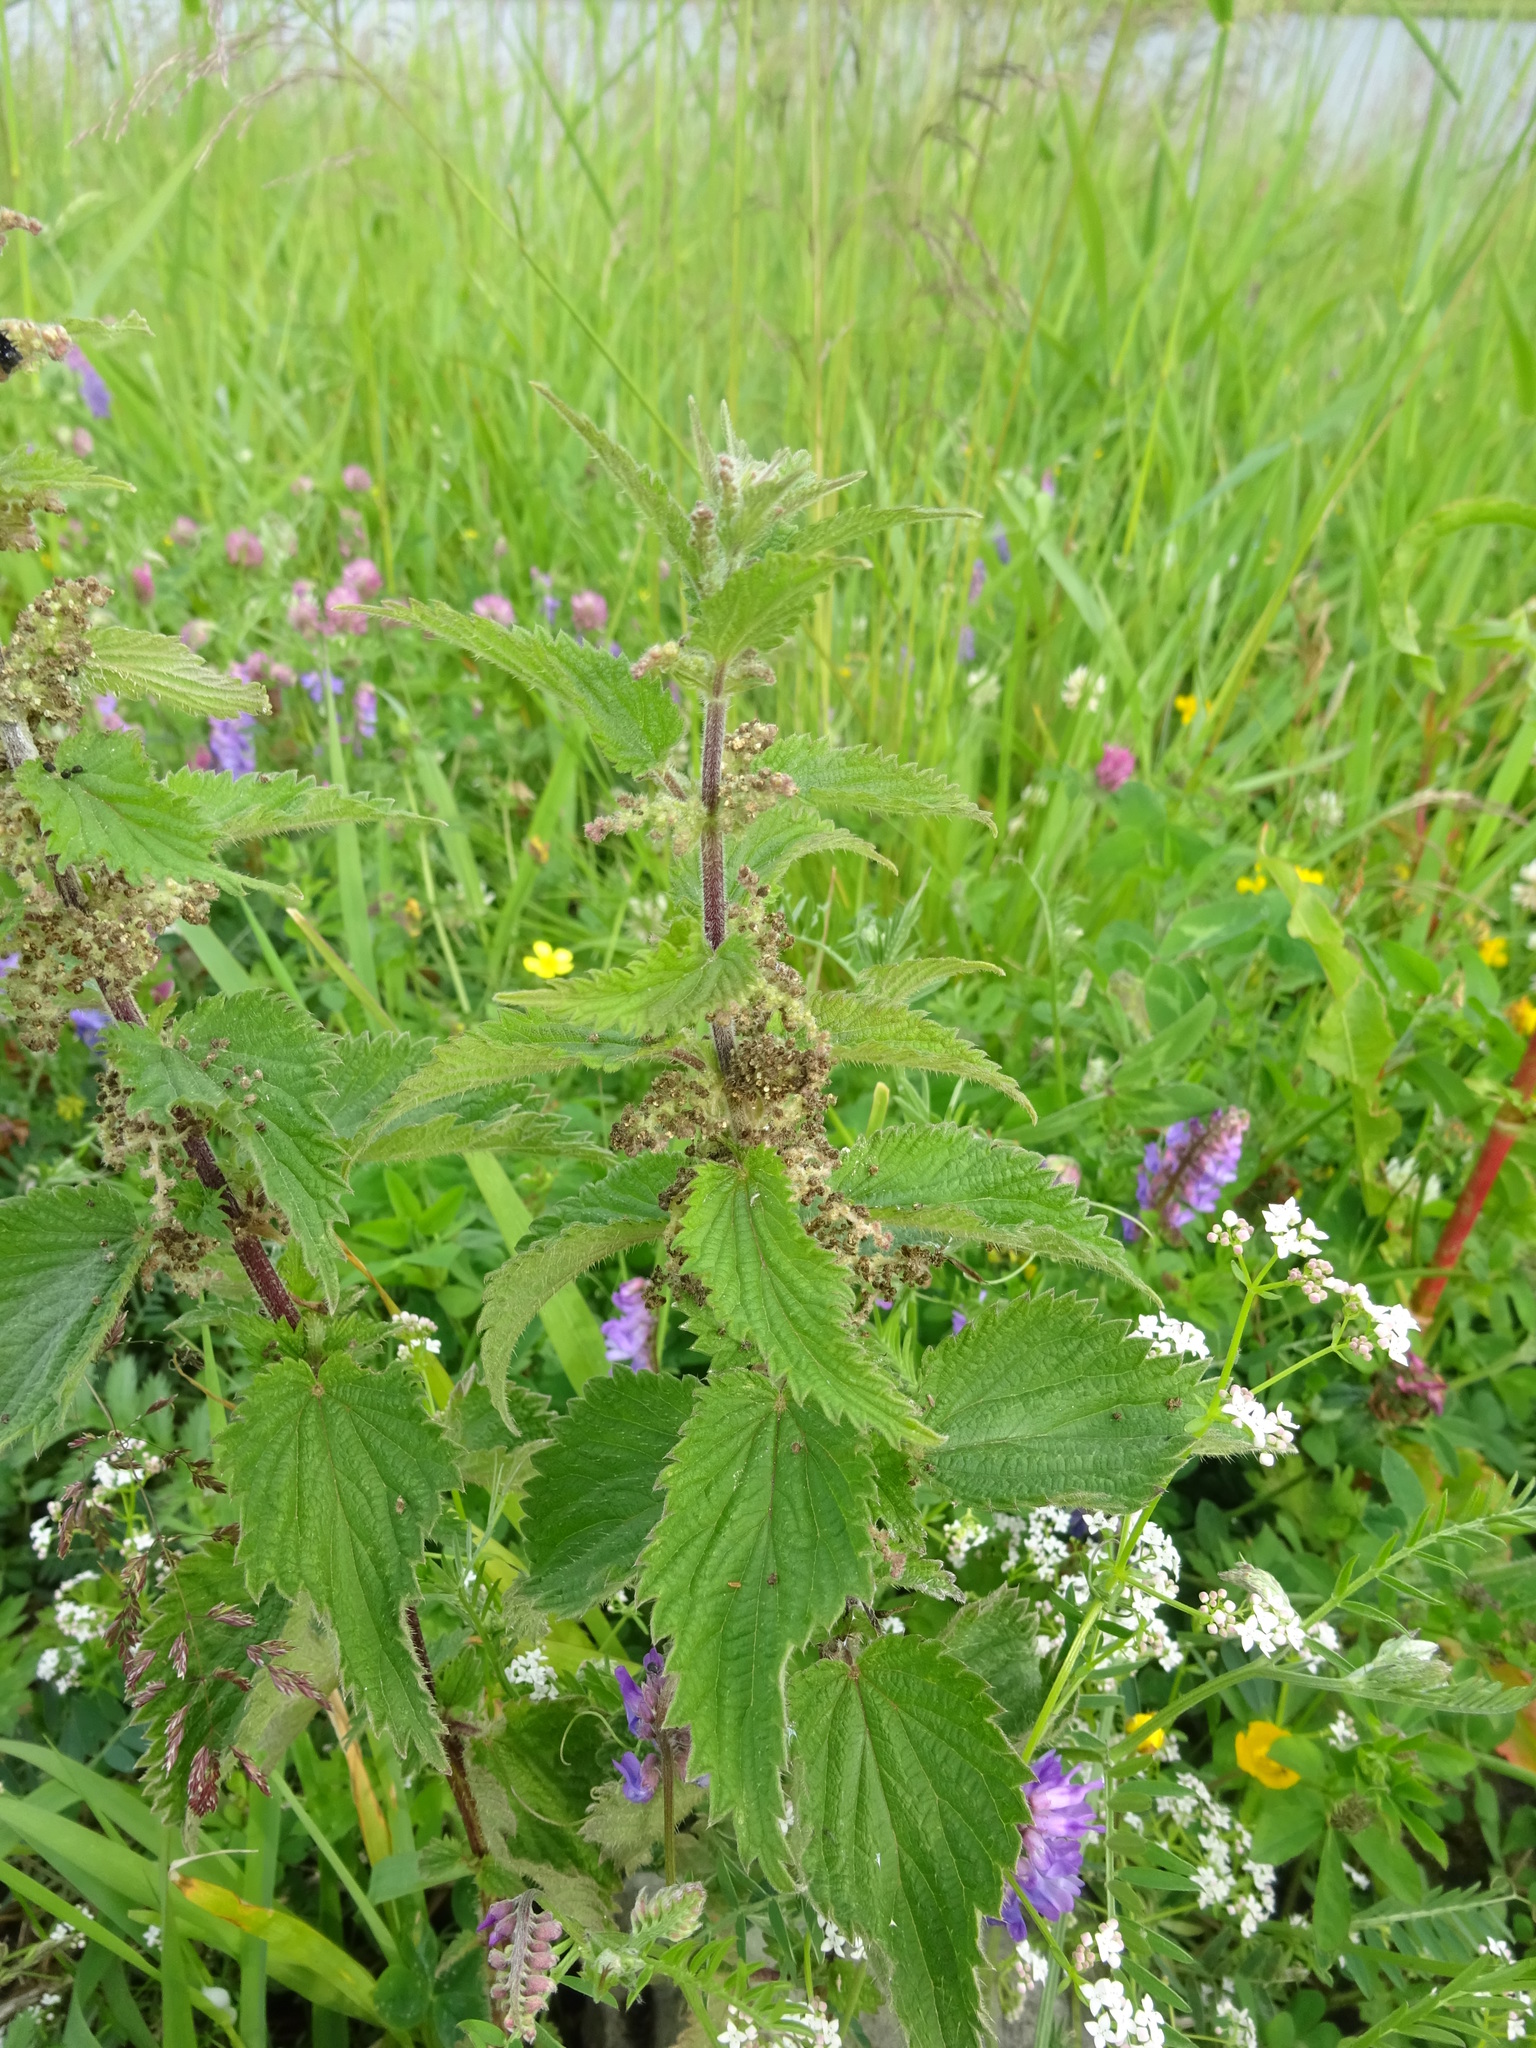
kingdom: Plantae
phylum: Tracheophyta
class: Magnoliopsida
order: Rosales
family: Urticaceae
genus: Urtica
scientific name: Urtica dioica
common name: Common nettle
